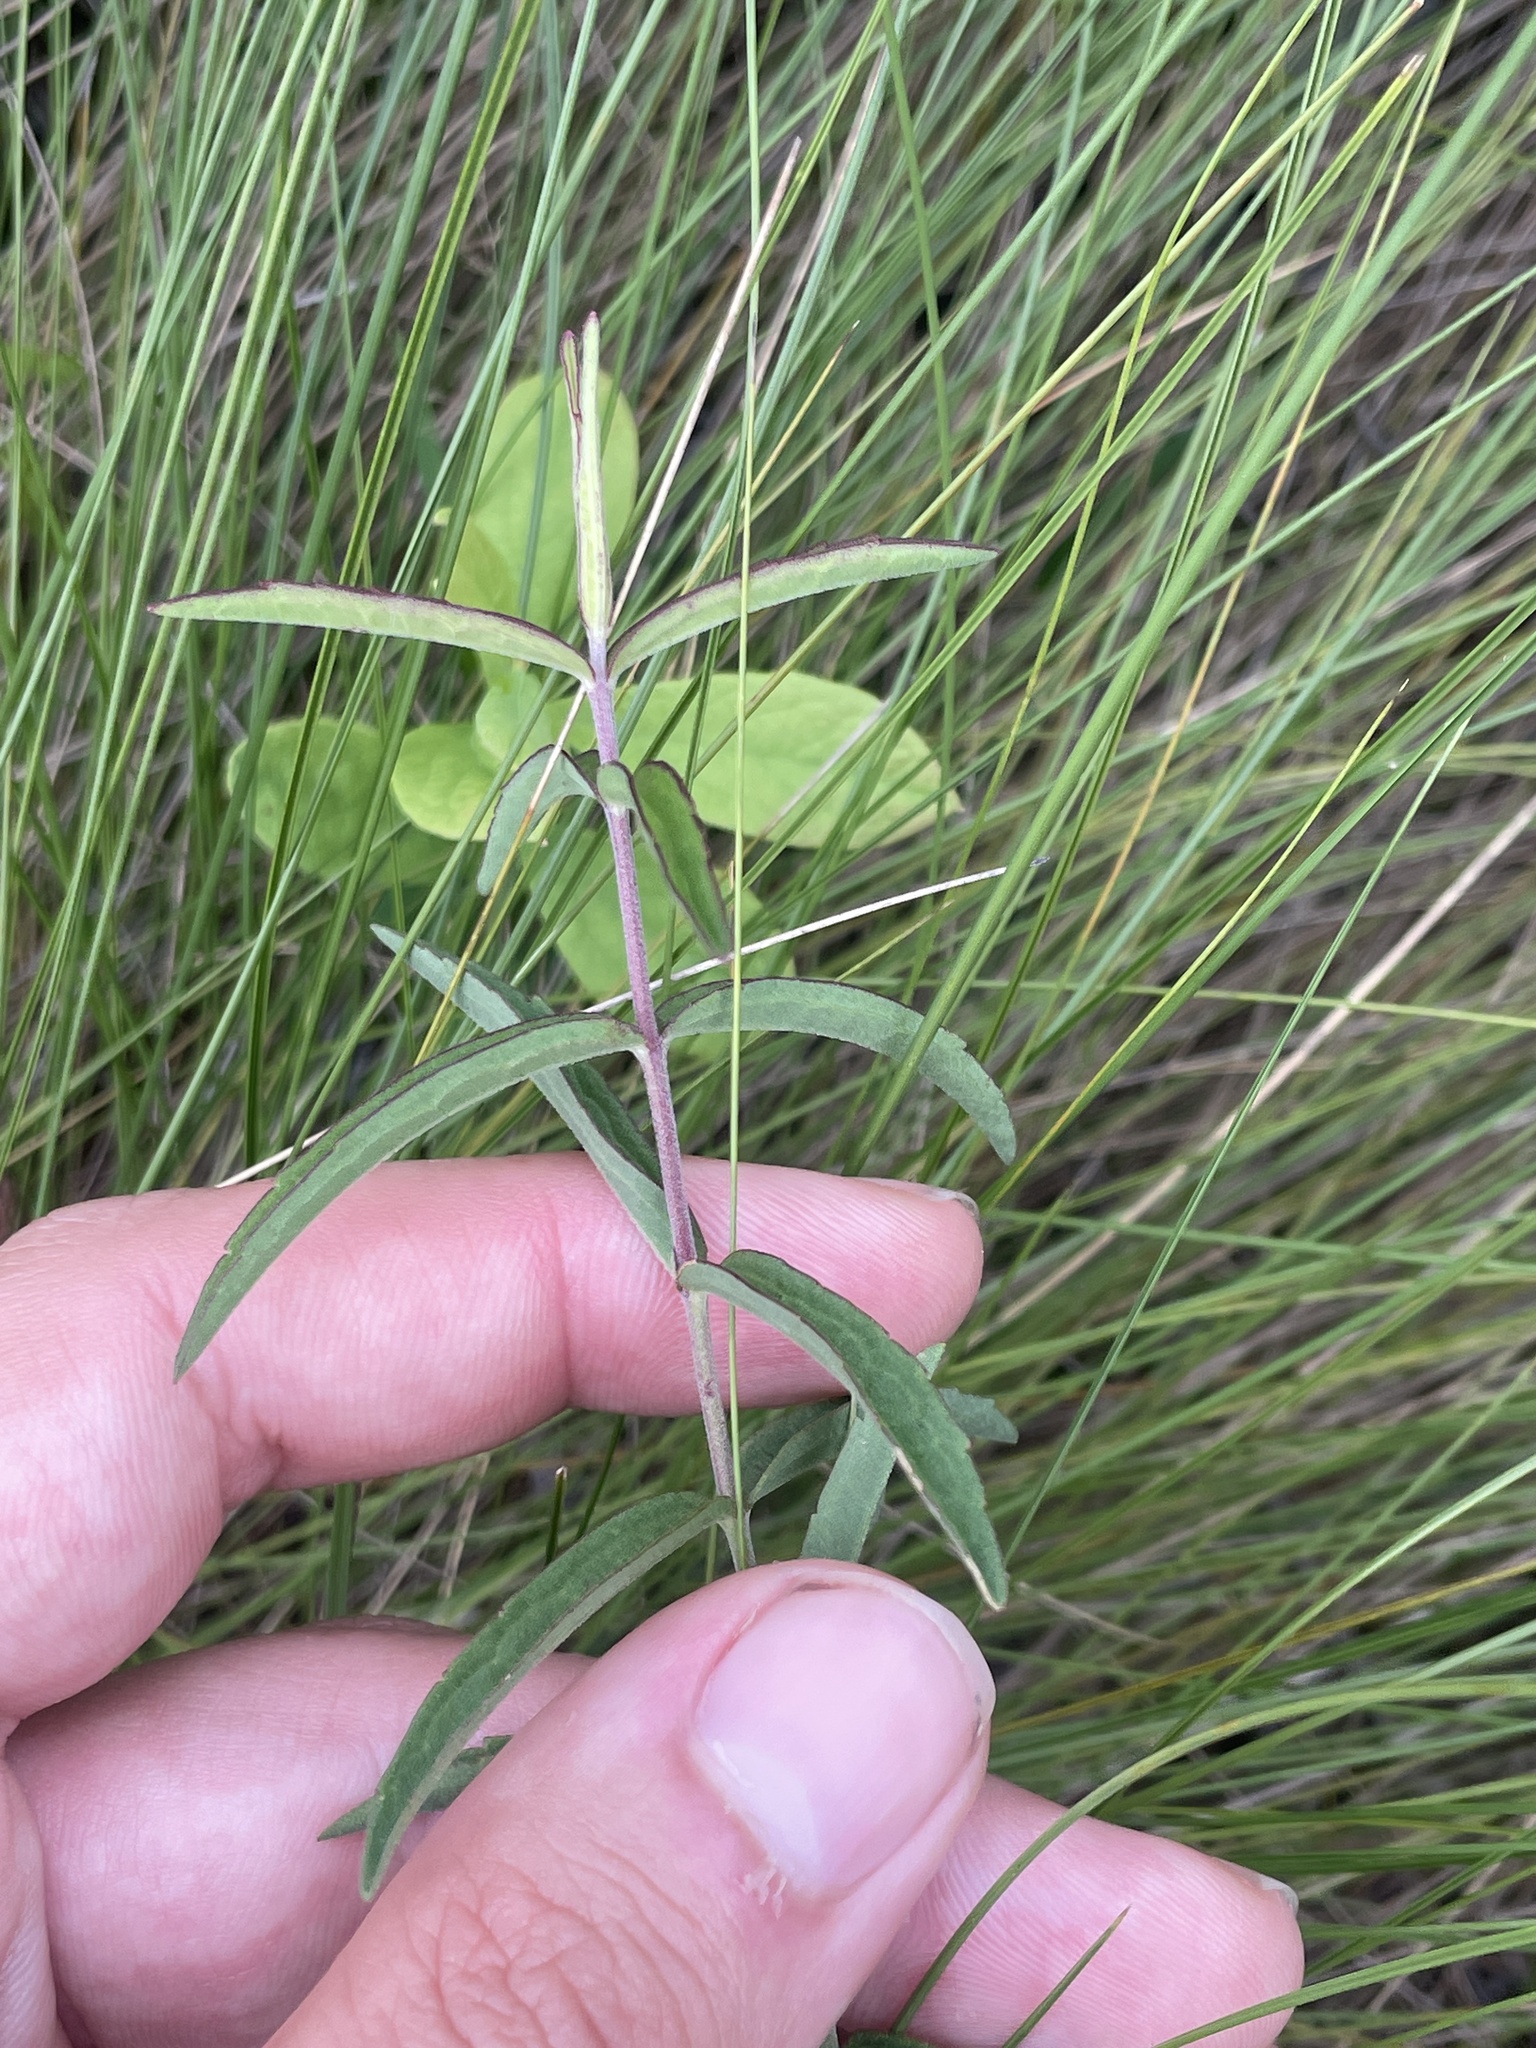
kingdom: Plantae
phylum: Tracheophyta
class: Magnoliopsida
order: Asterales
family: Asteraceae
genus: Eupatorium
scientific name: Eupatorium leucolepis
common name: Justiceweed
